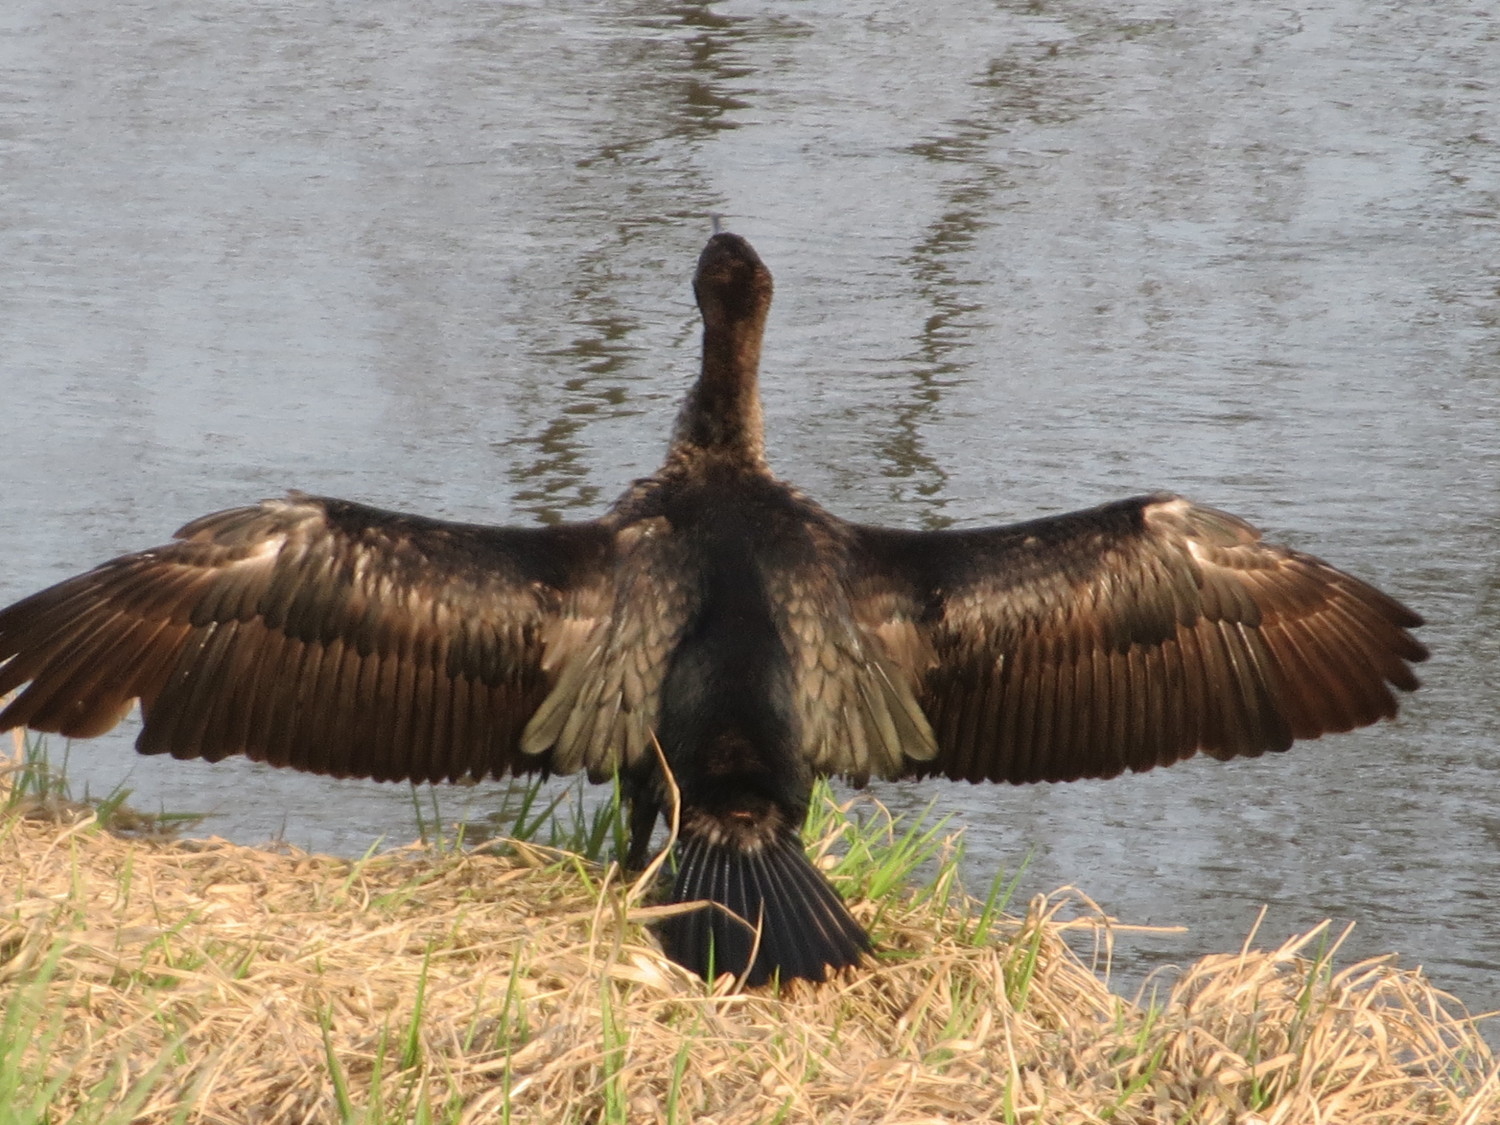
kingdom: Animalia
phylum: Chordata
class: Aves
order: Suliformes
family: Phalacrocoracidae
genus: Phalacrocorax
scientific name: Phalacrocorax carbo
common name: Great cormorant
